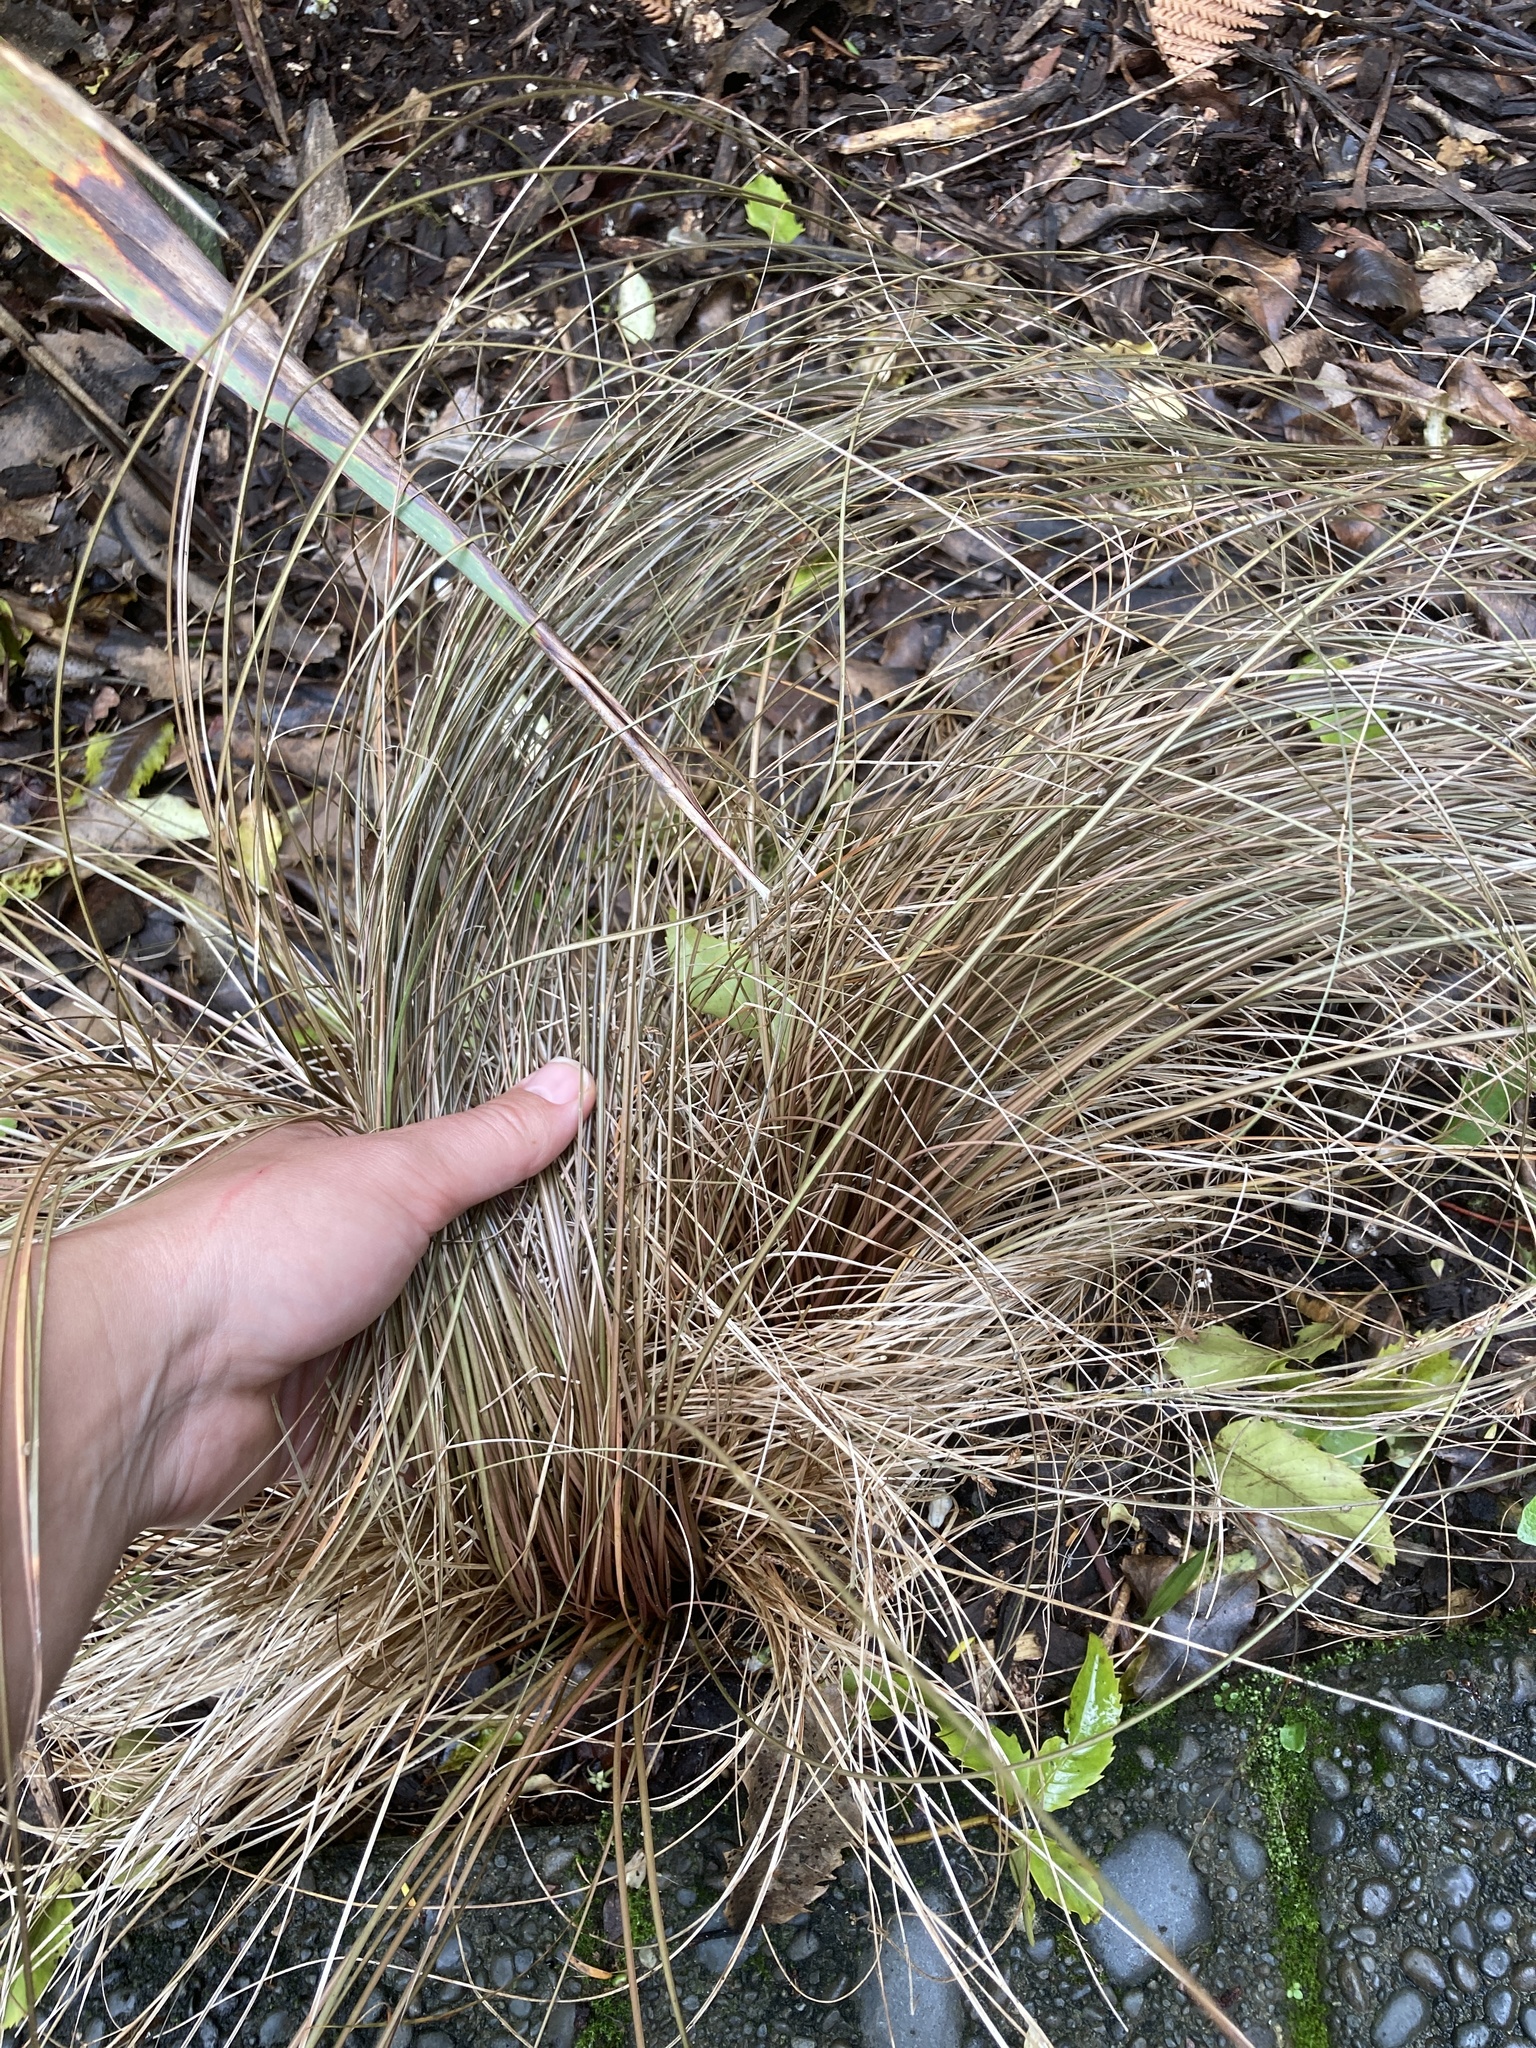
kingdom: Plantae
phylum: Tracheophyta
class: Liliopsida
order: Poales
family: Cyperaceae
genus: Carex
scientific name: Carex comans
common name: Longwood tussock
